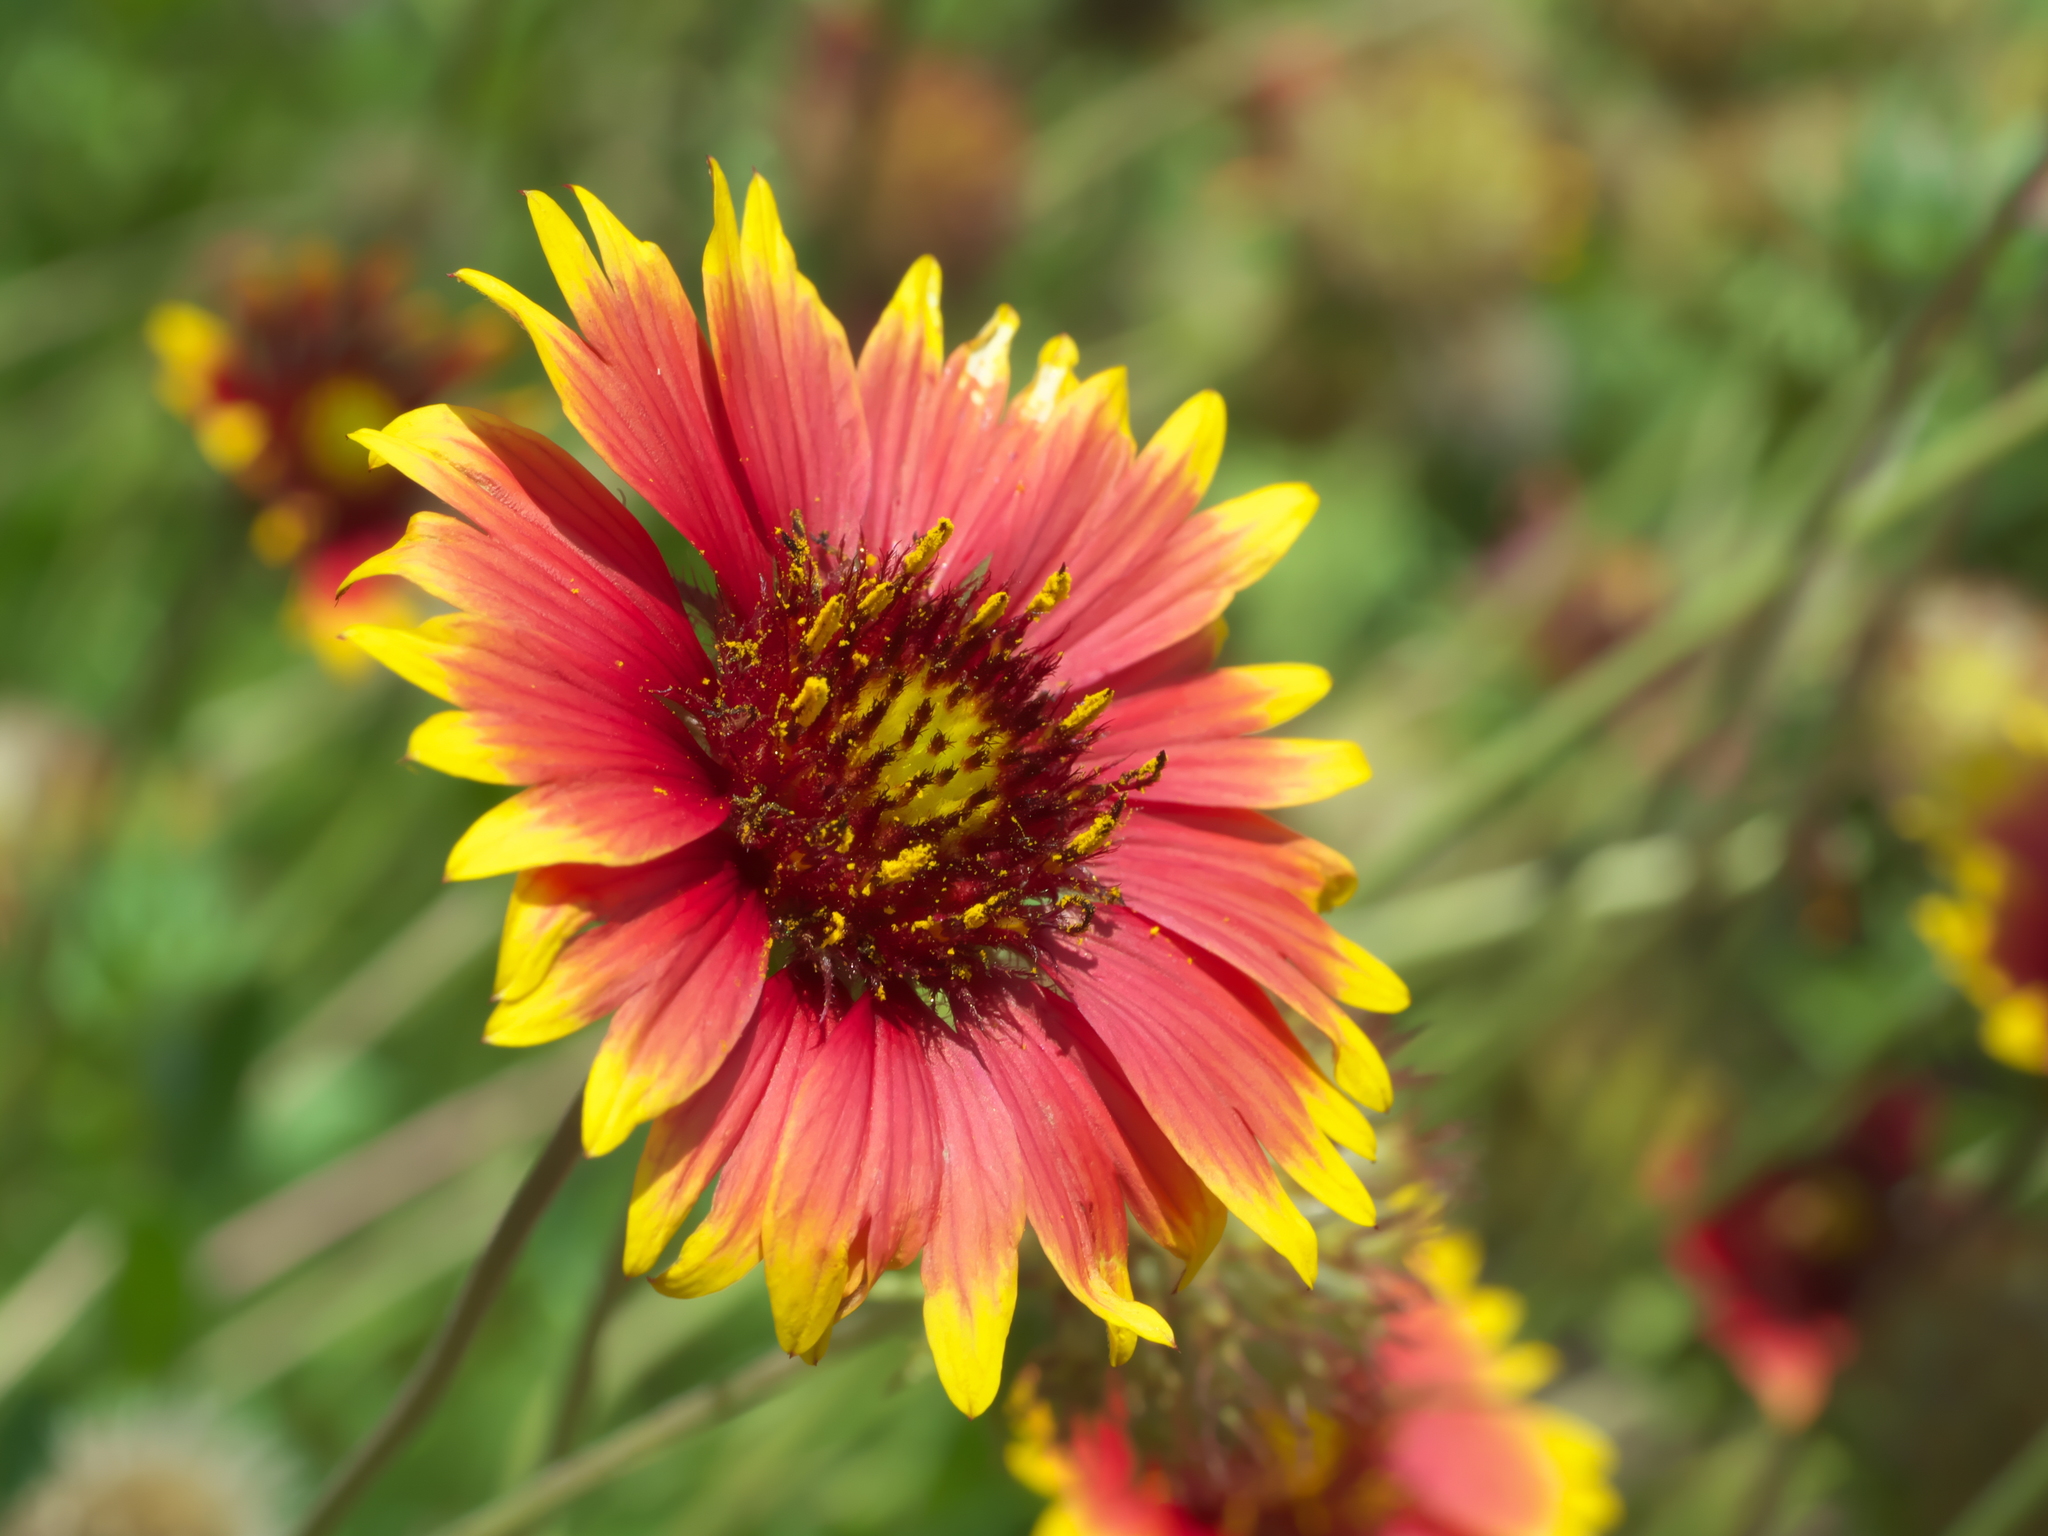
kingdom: Plantae
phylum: Tracheophyta
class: Magnoliopsida
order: Asterales
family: Asteraceae
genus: Gaillardia
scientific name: Gaillardia pulchella
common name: Firewheel
